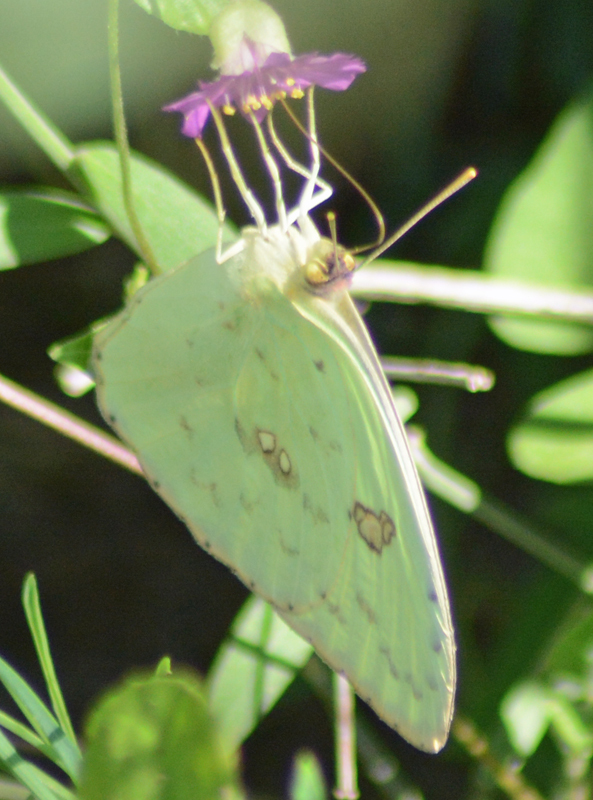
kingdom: Animalia
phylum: Arthropoda
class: Insecta
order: Lepidoptera
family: Pieridae
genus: Phoebis
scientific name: Phoebis marcellina
